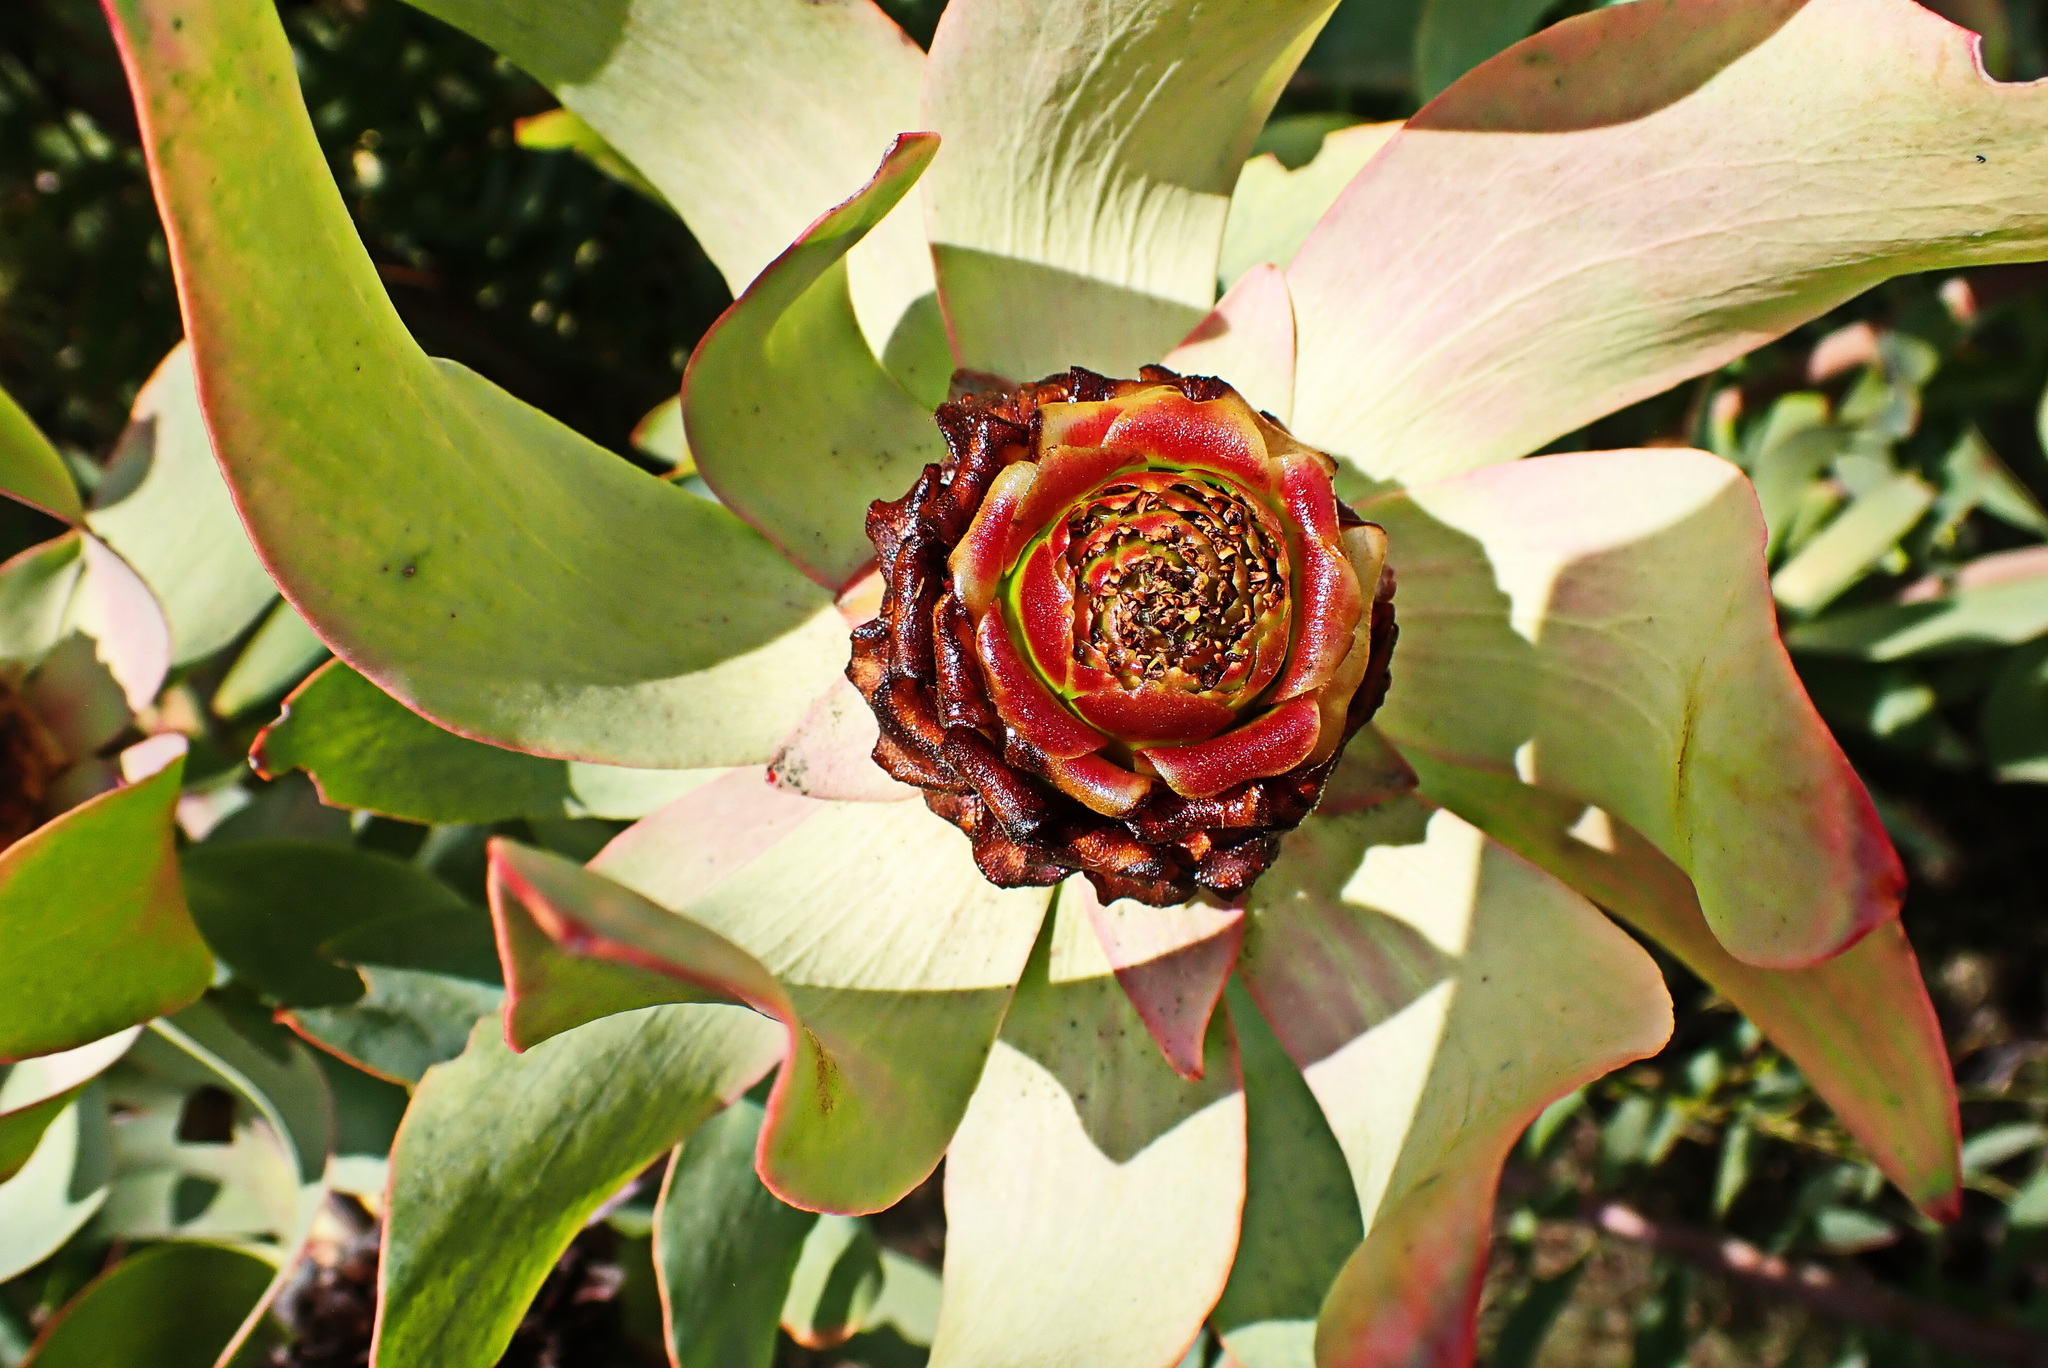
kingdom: Plantae
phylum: Tracheophyta
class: Magnoliopsida
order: Proteales
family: Proteaceae
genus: Leucadendron
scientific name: Leucadendron tinctum
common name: Spicy conebush
